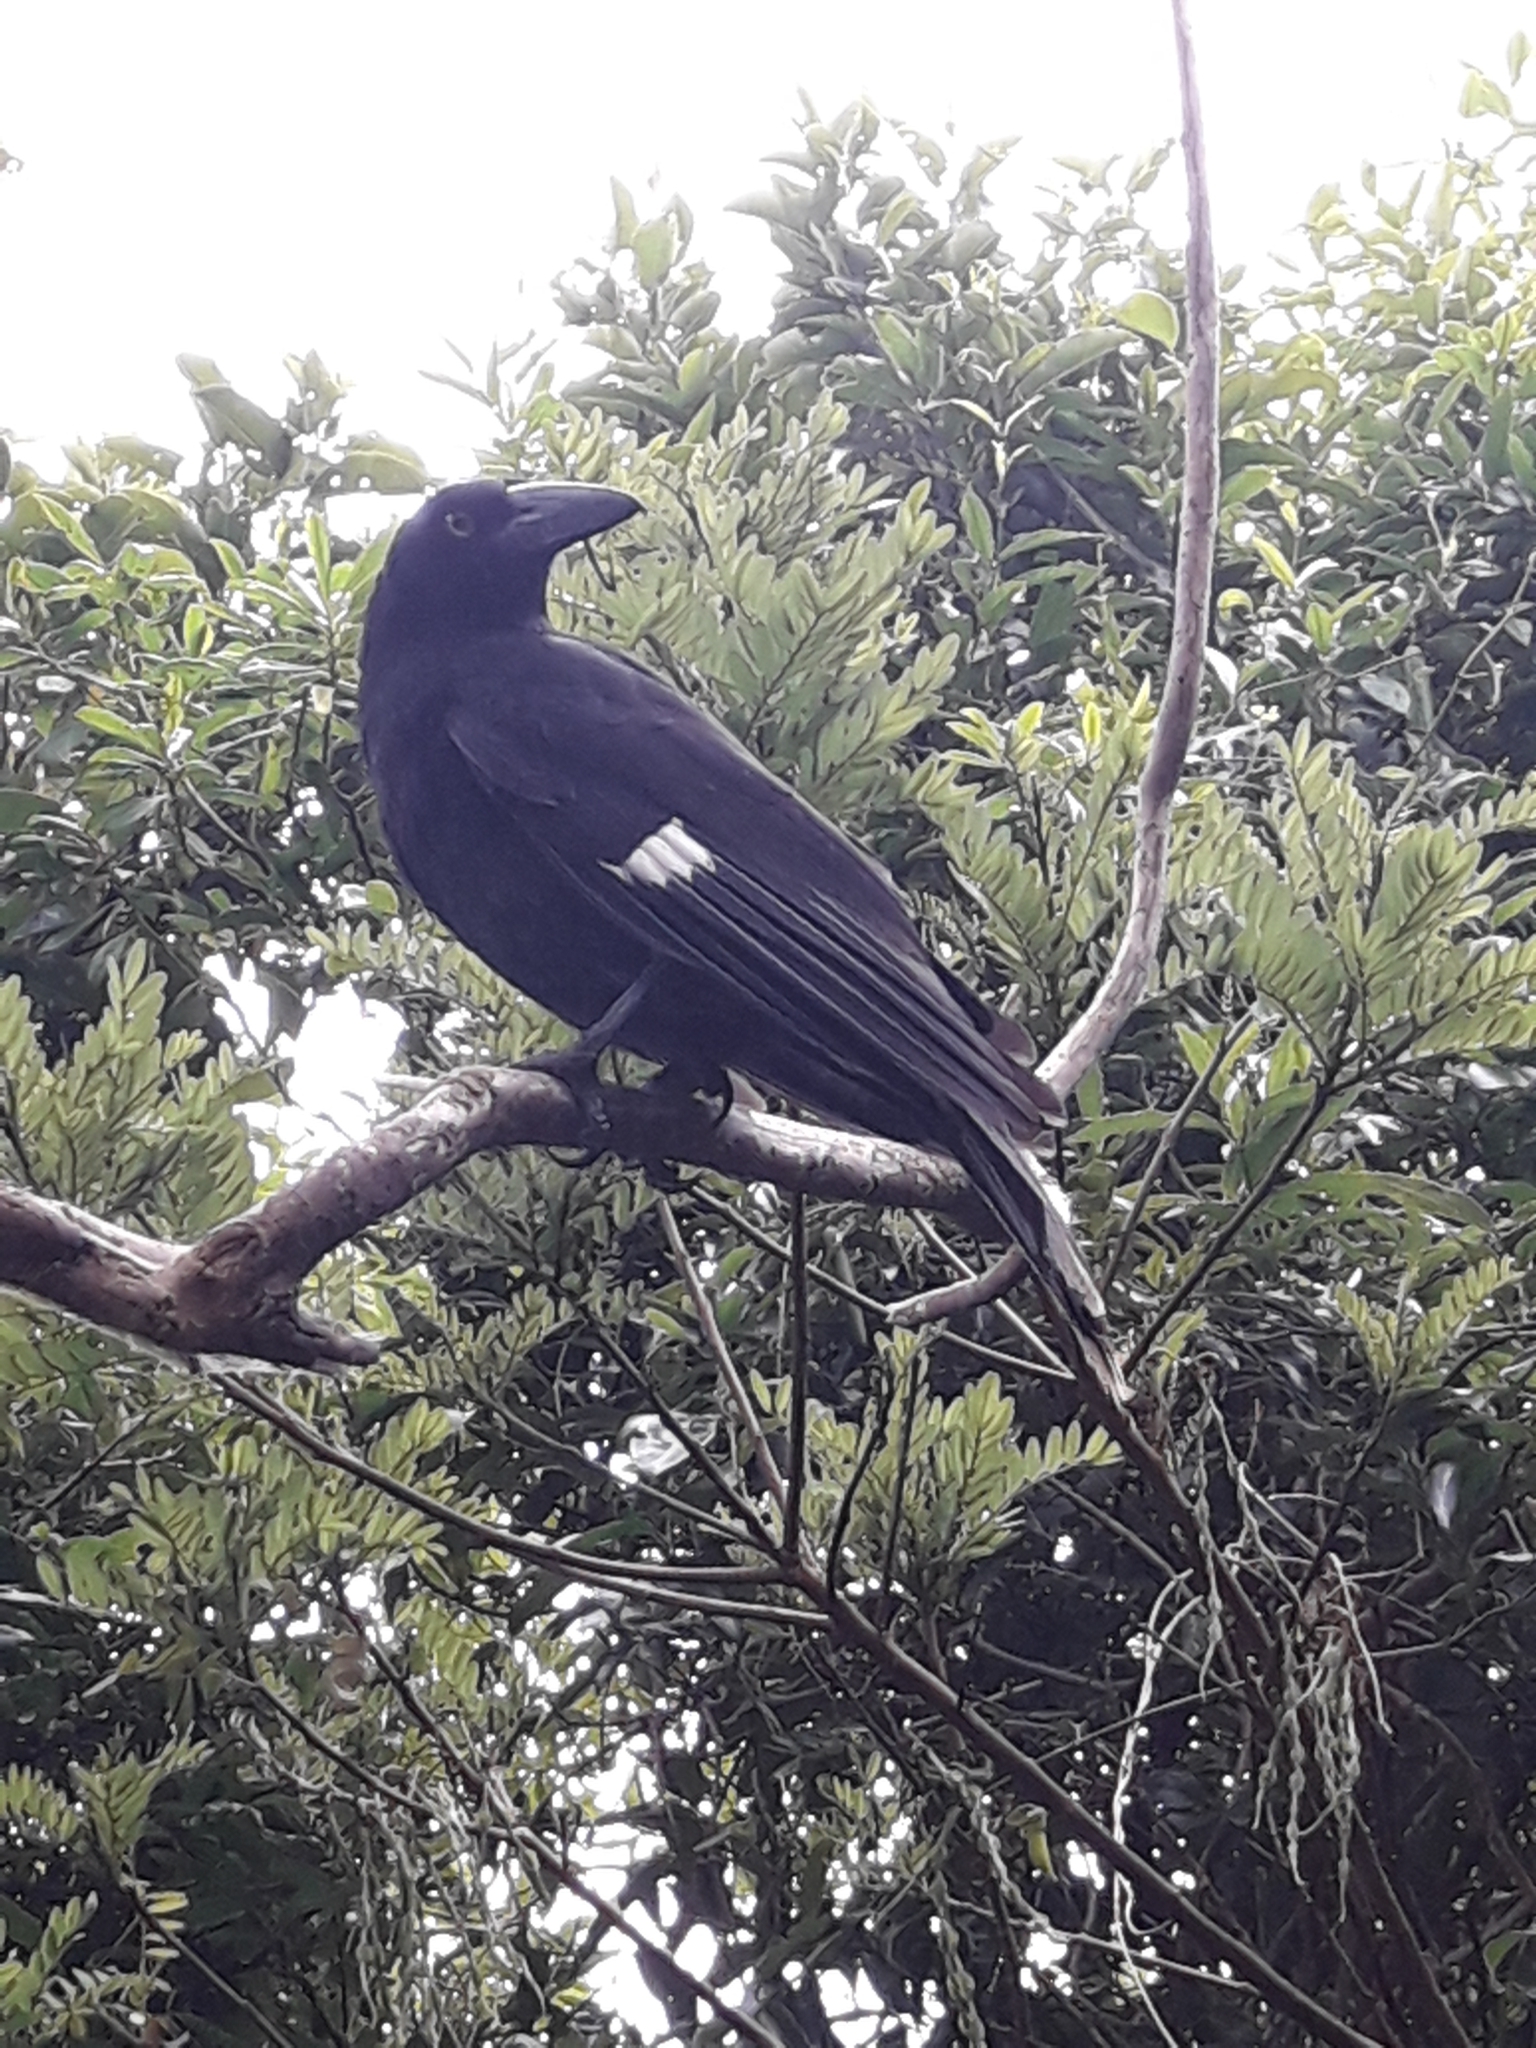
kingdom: Animalia
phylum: Chordata
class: Aves
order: Passeriformes
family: Cracticidae
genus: Strepera
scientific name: Strepera graculina
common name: Pied currawong
